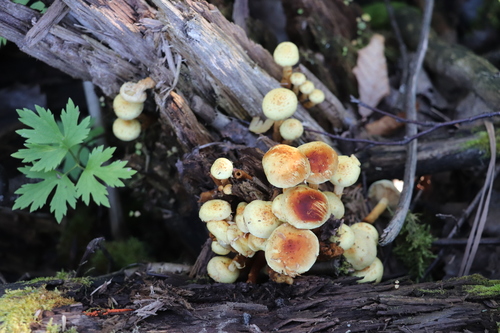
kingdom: Fungi
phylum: Basidiomycota
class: Agaricomycetes
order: Agaricales
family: Hymenogastraceae
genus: Flammula
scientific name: Flammula alnicola
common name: Alder scalycap
